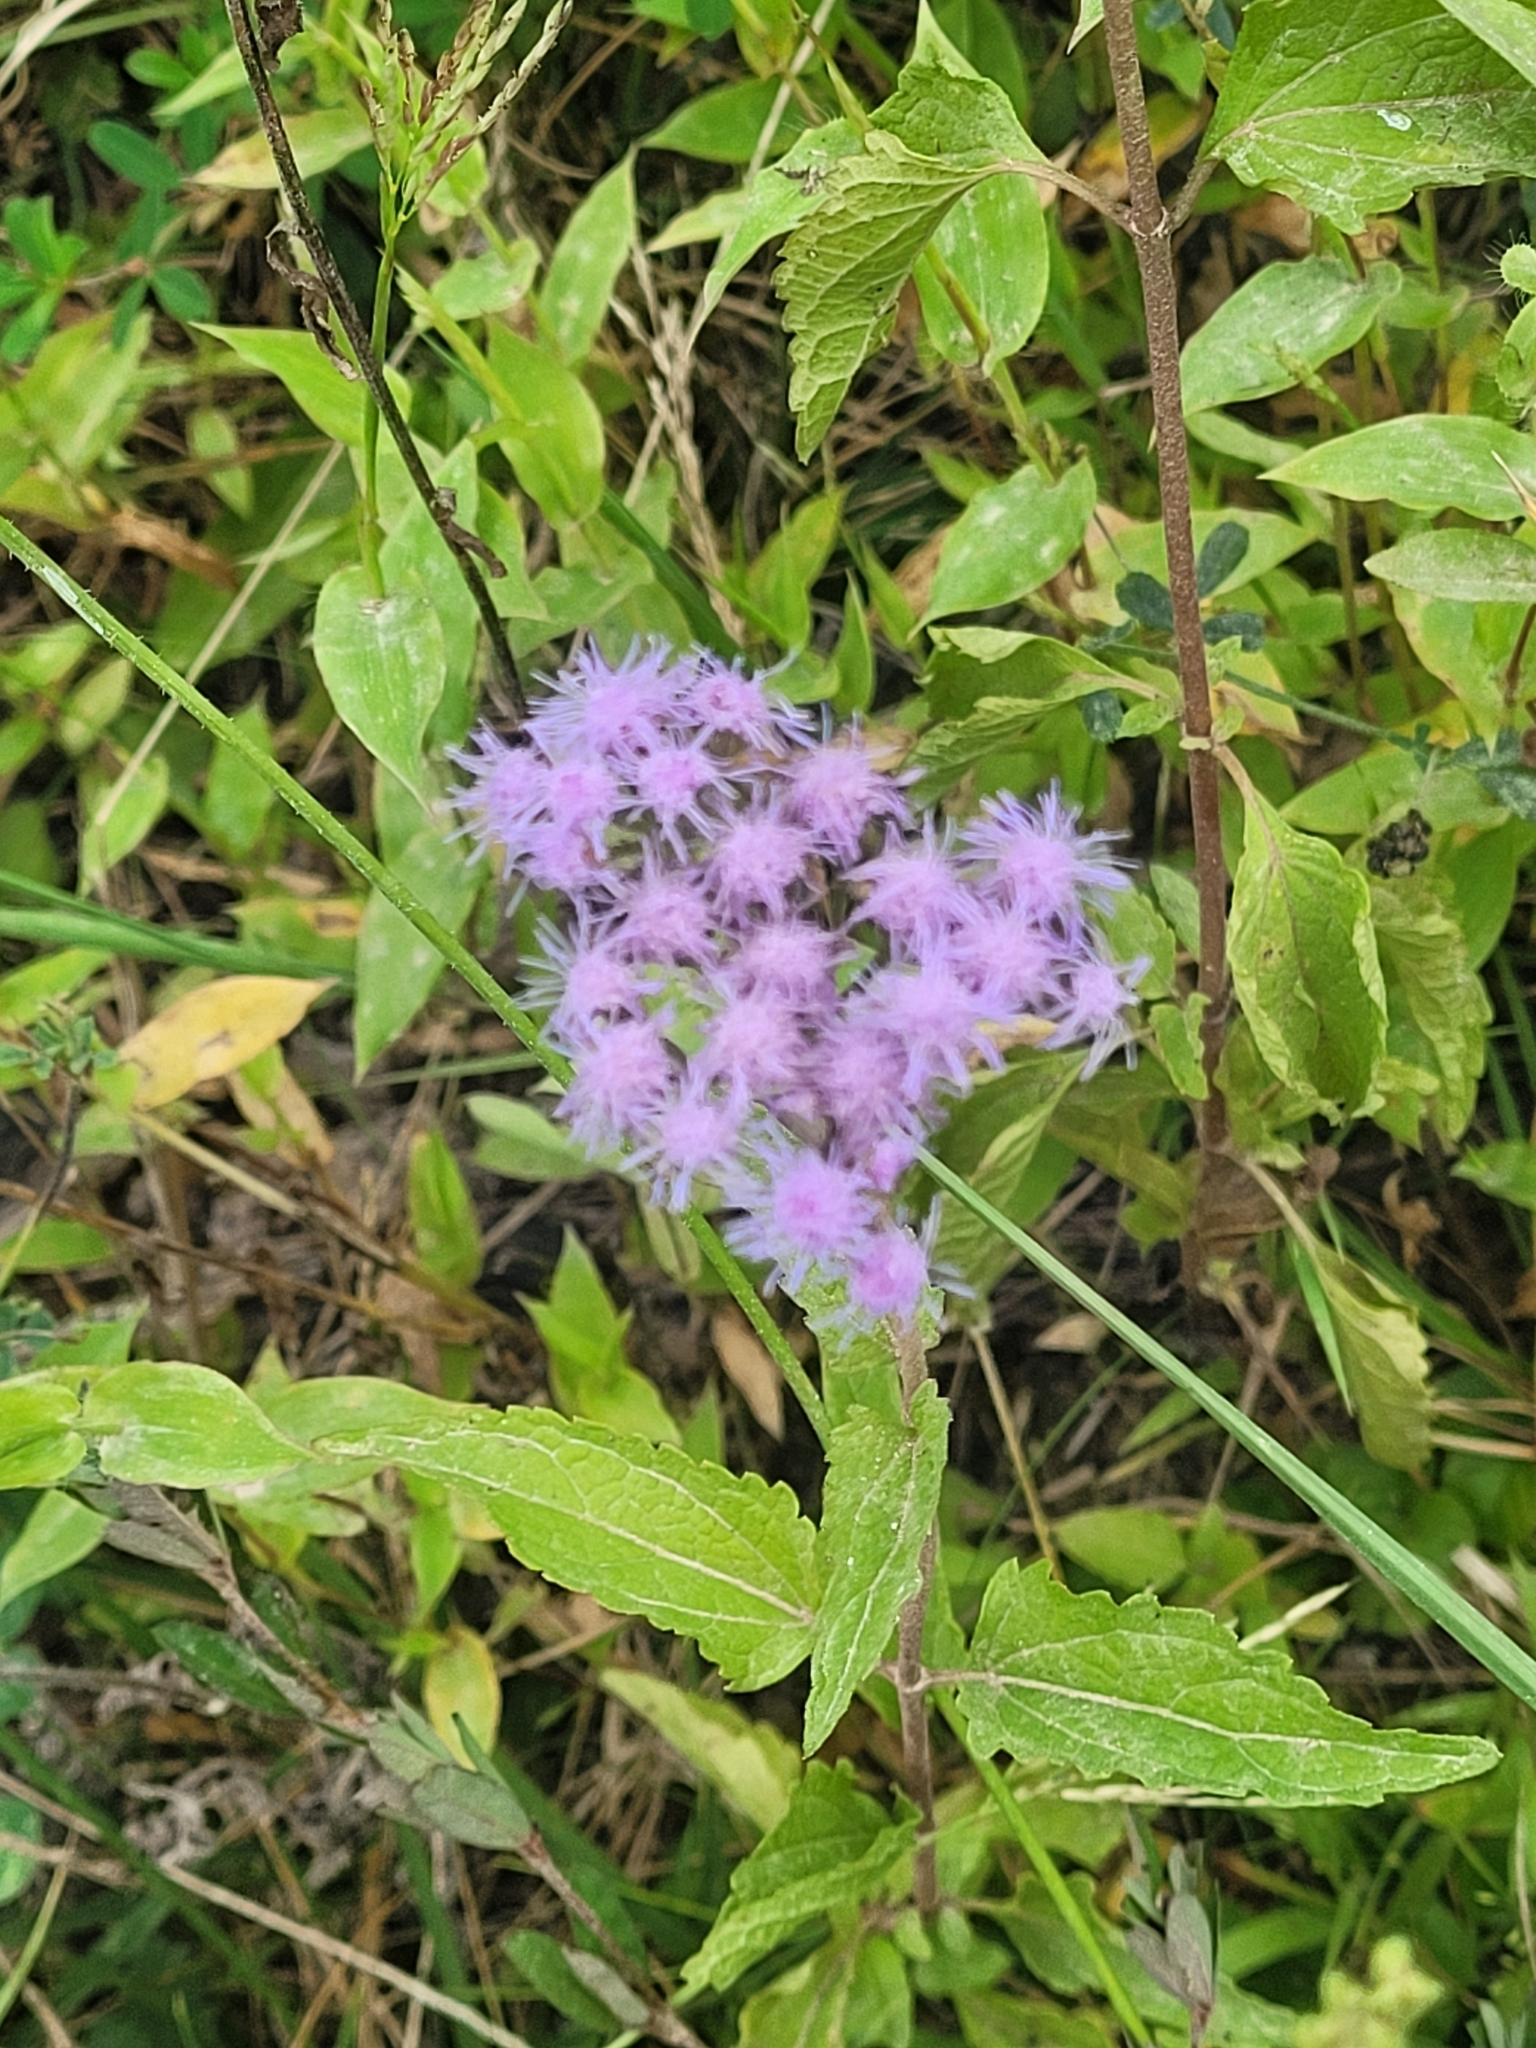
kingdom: Plantae
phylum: Tracheophyta
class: Magnoliopsida
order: Asterales
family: Asteraceae
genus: Conoclinium
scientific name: Conoclinium coelestinum
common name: Blue mistflower
